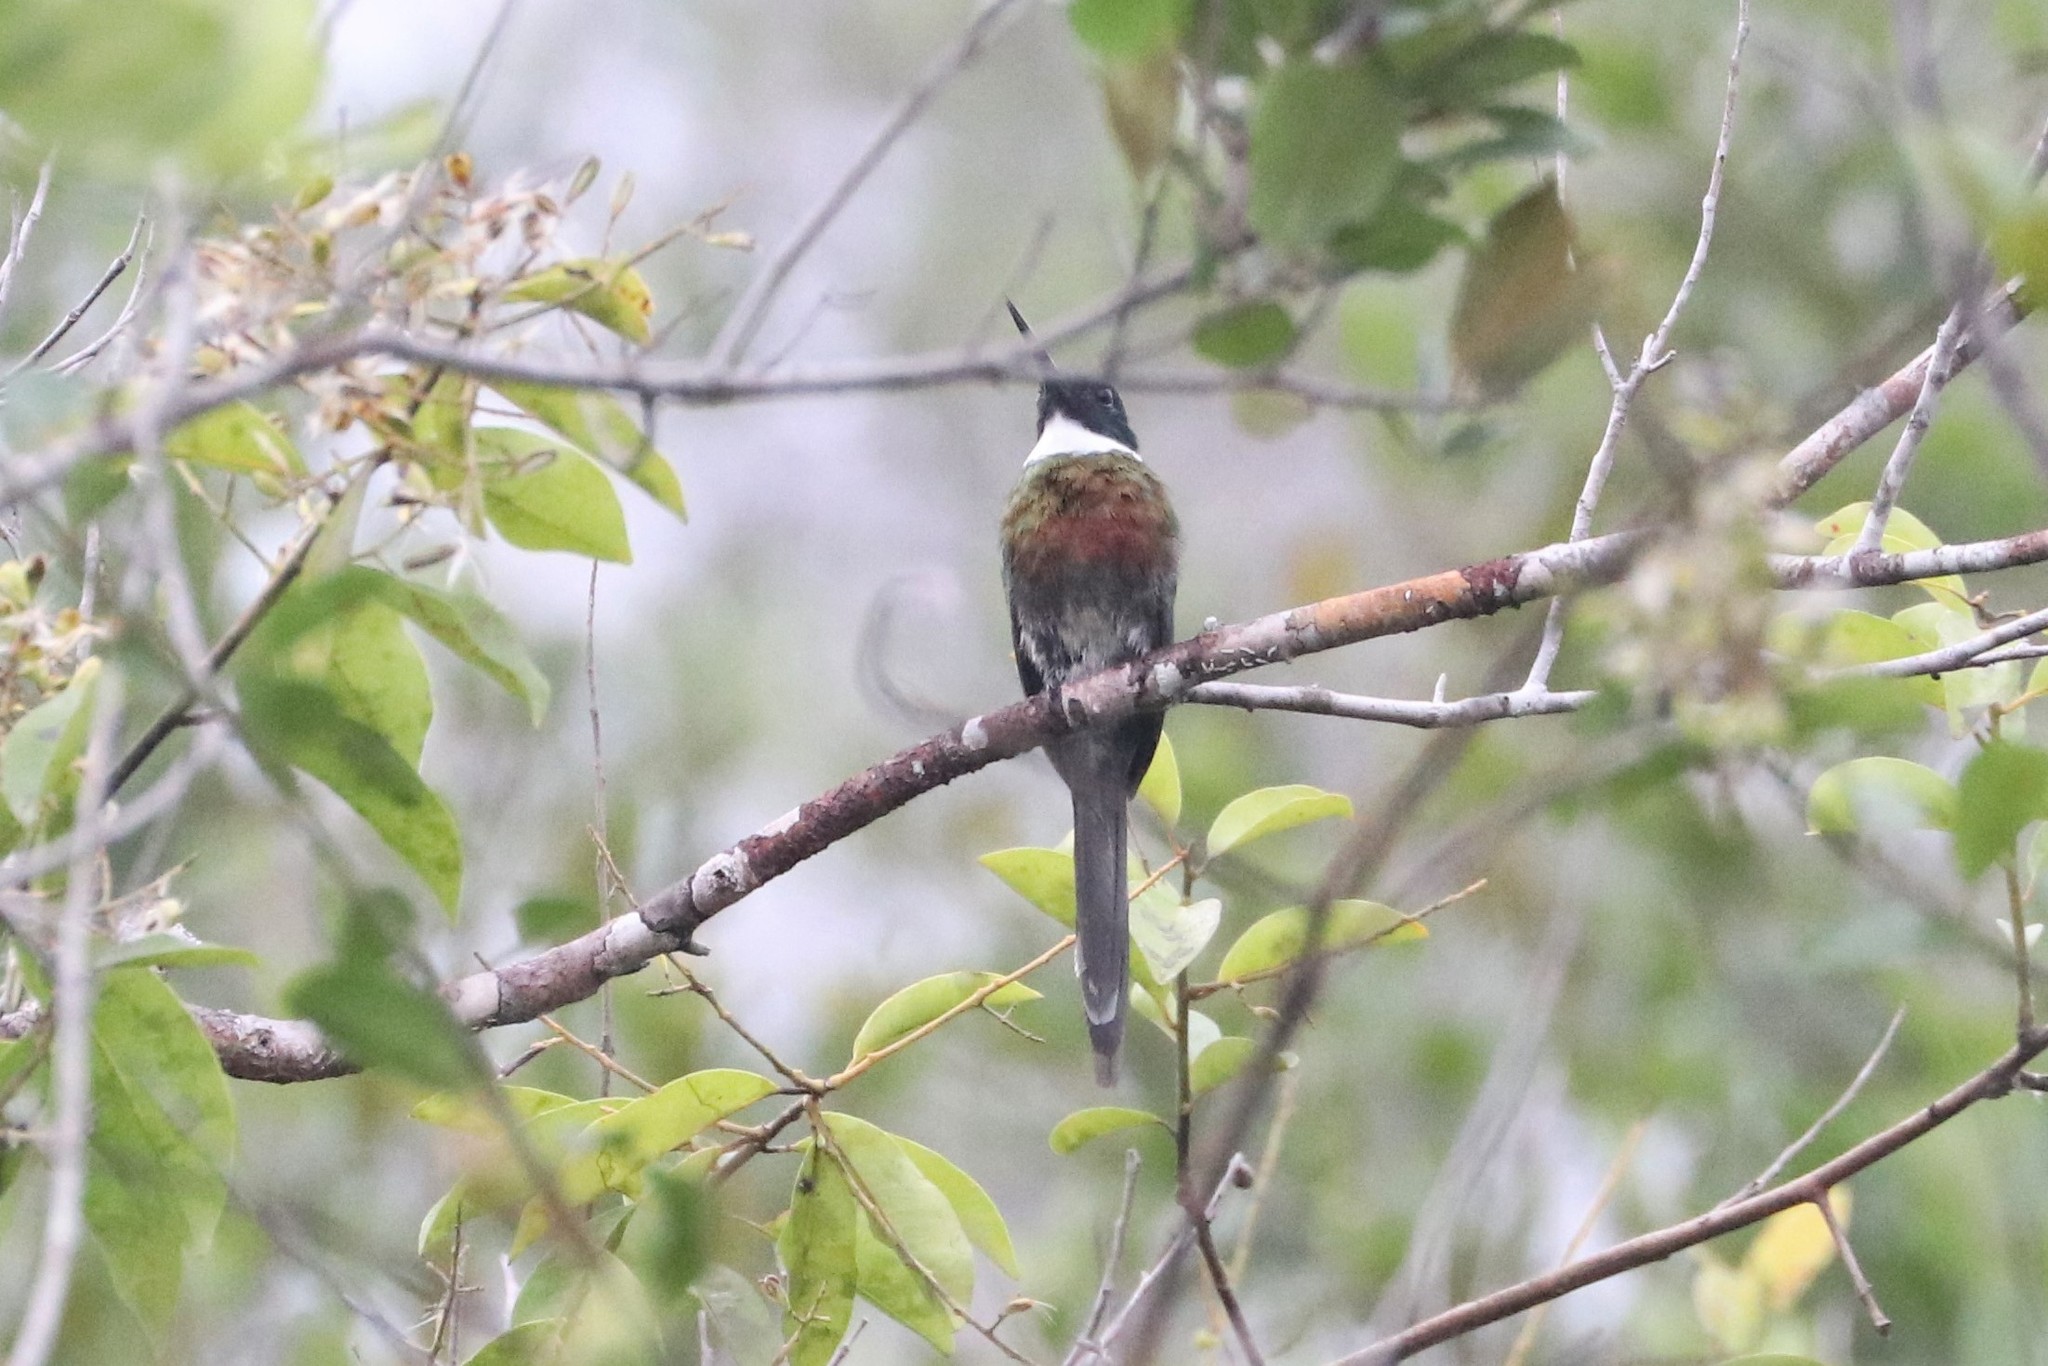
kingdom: Animalia
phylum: Chordata
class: Aves
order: Piciformes
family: Galbulidae
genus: Galbula
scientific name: Galbula leucogastra
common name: Bronzy jacamar
